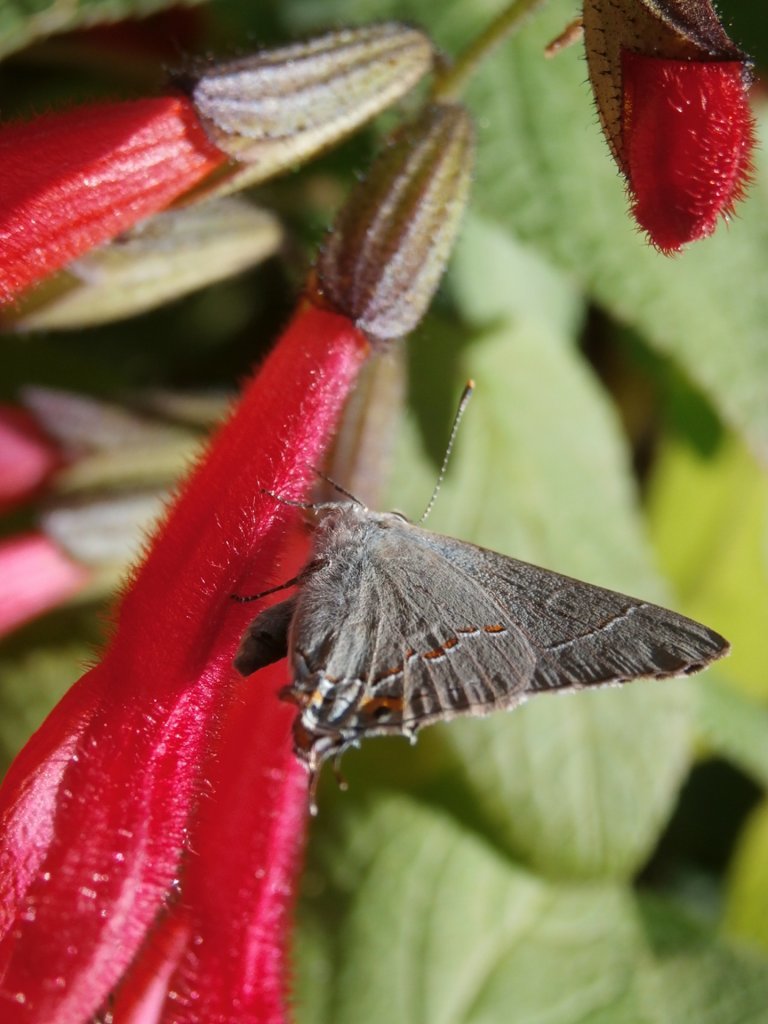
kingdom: Animalia
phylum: Arthropoda
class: Insecta
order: Lepidoptera
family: Lycaenidae
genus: Strymon
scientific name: Strymon melinus
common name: Gray hairstreak
